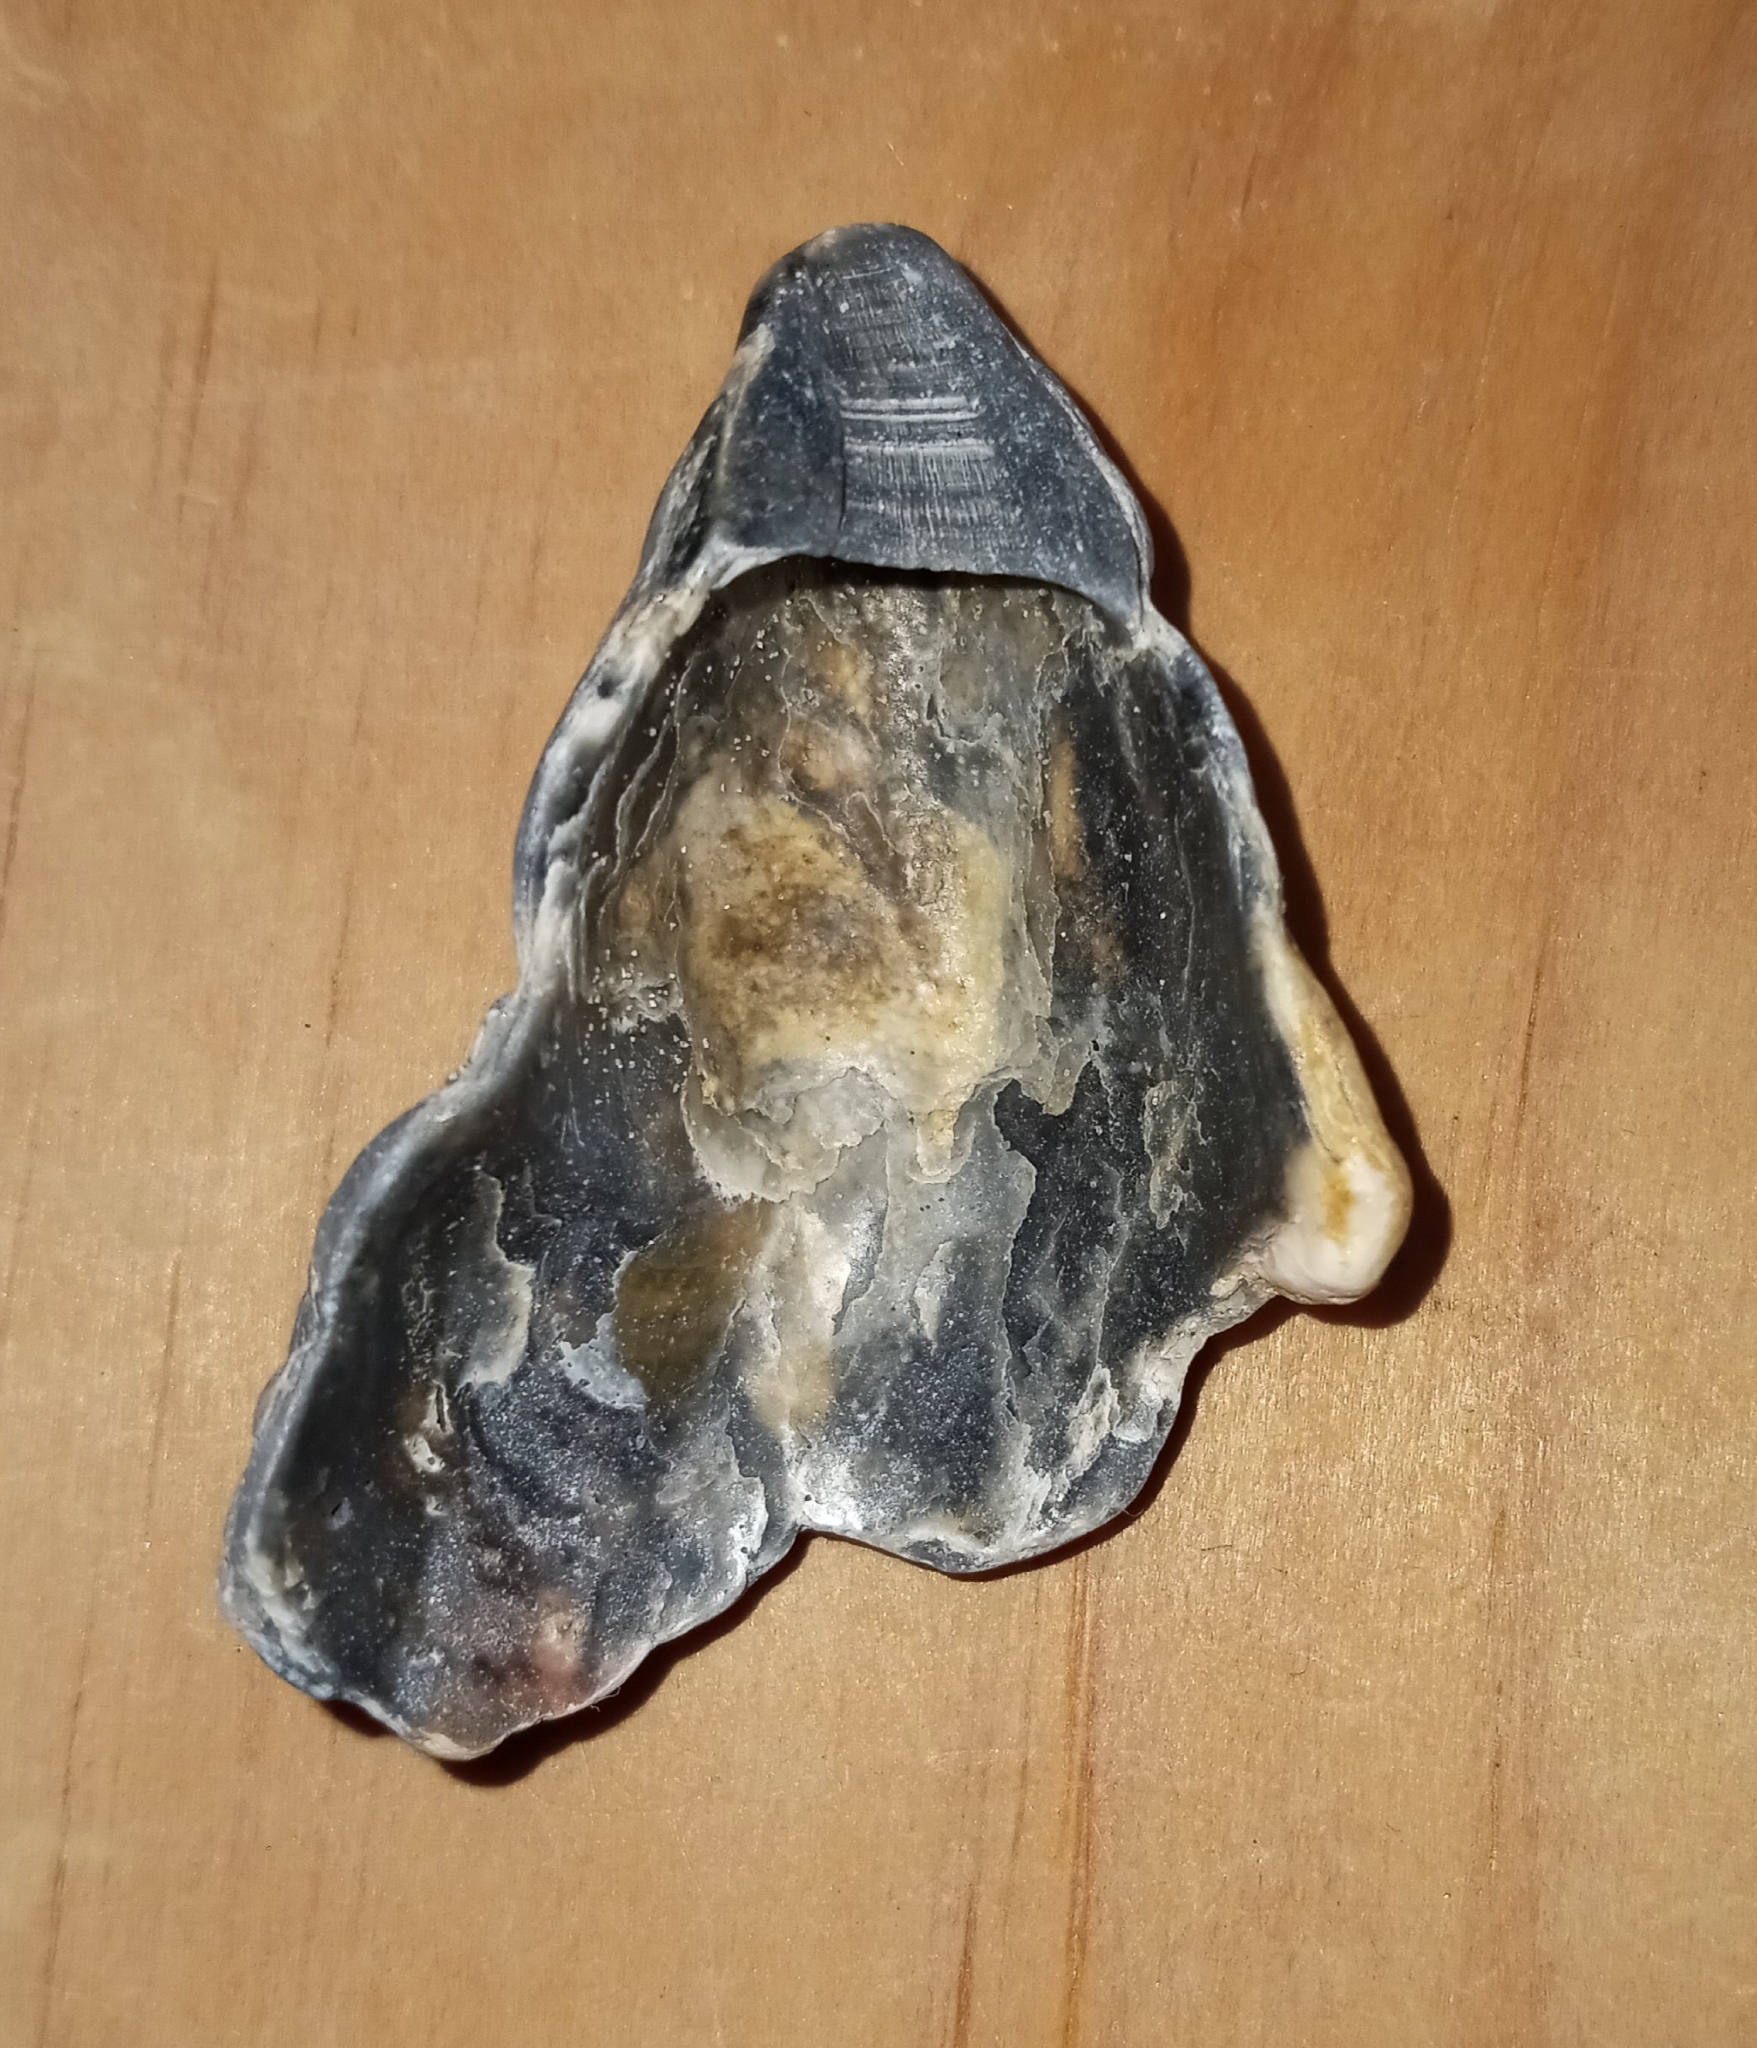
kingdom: Animalia
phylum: Mollusca
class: Bivalvia
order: Ostreida
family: Ostreidae
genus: Crassostrea
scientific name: Crassostrea virginica
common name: American oyster
